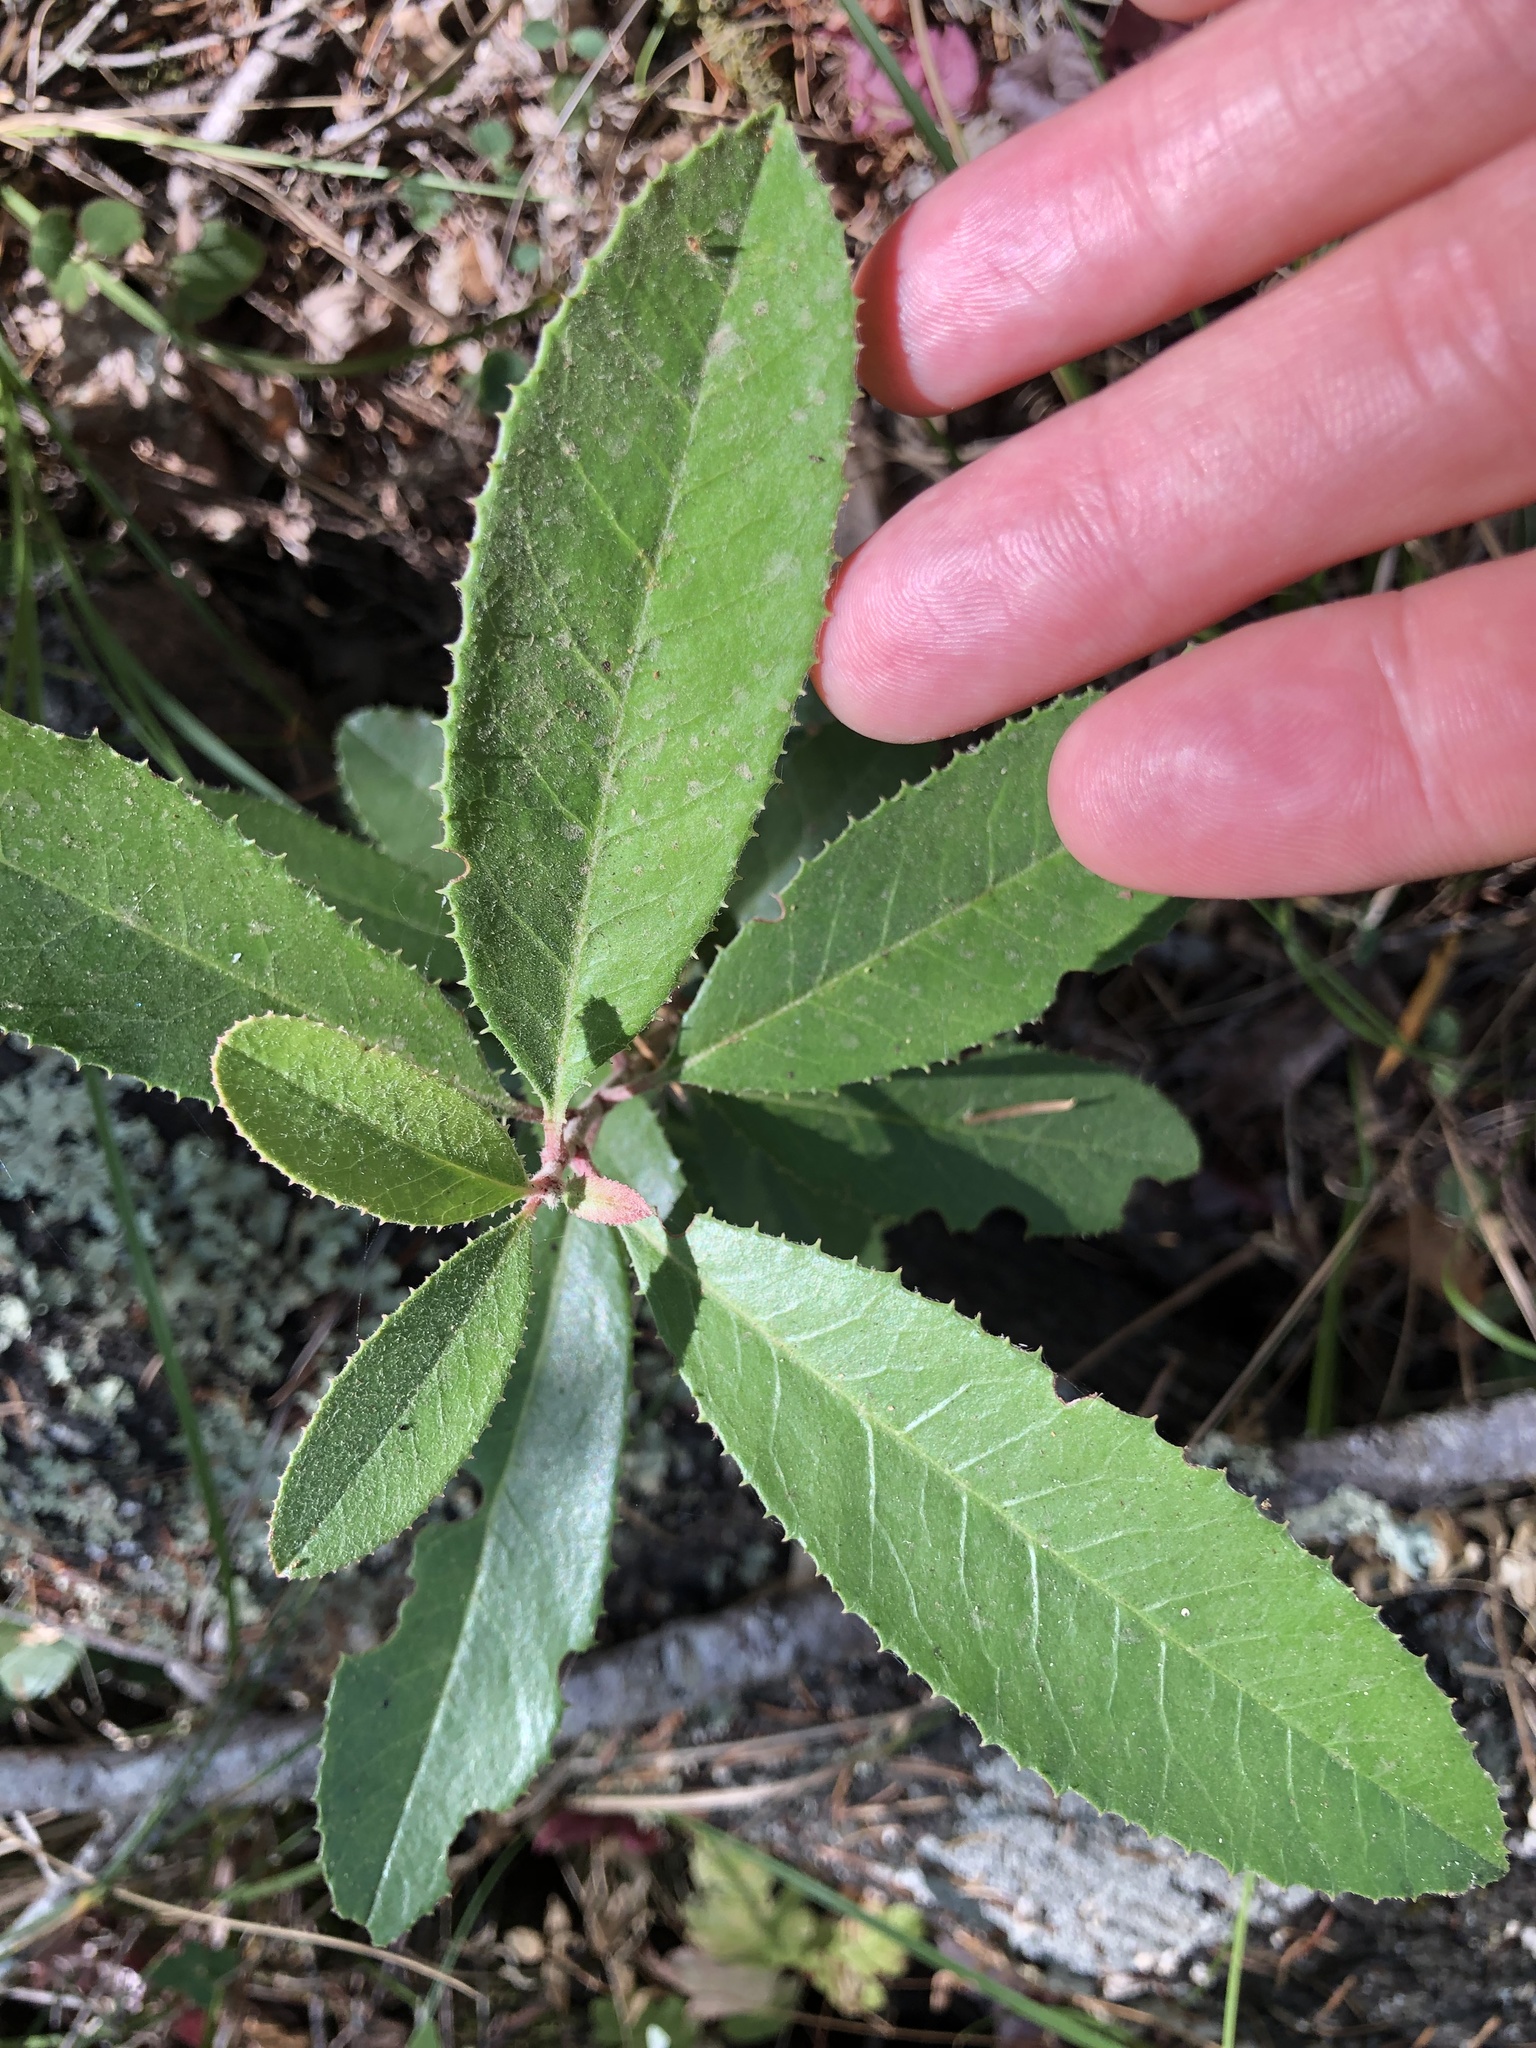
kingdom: Plantae
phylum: Tracheophyta
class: Magnoliopsida
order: Rosales
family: Rosaceae
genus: Heteromeles
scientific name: Heteromeles arbutifolia
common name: California-holly
